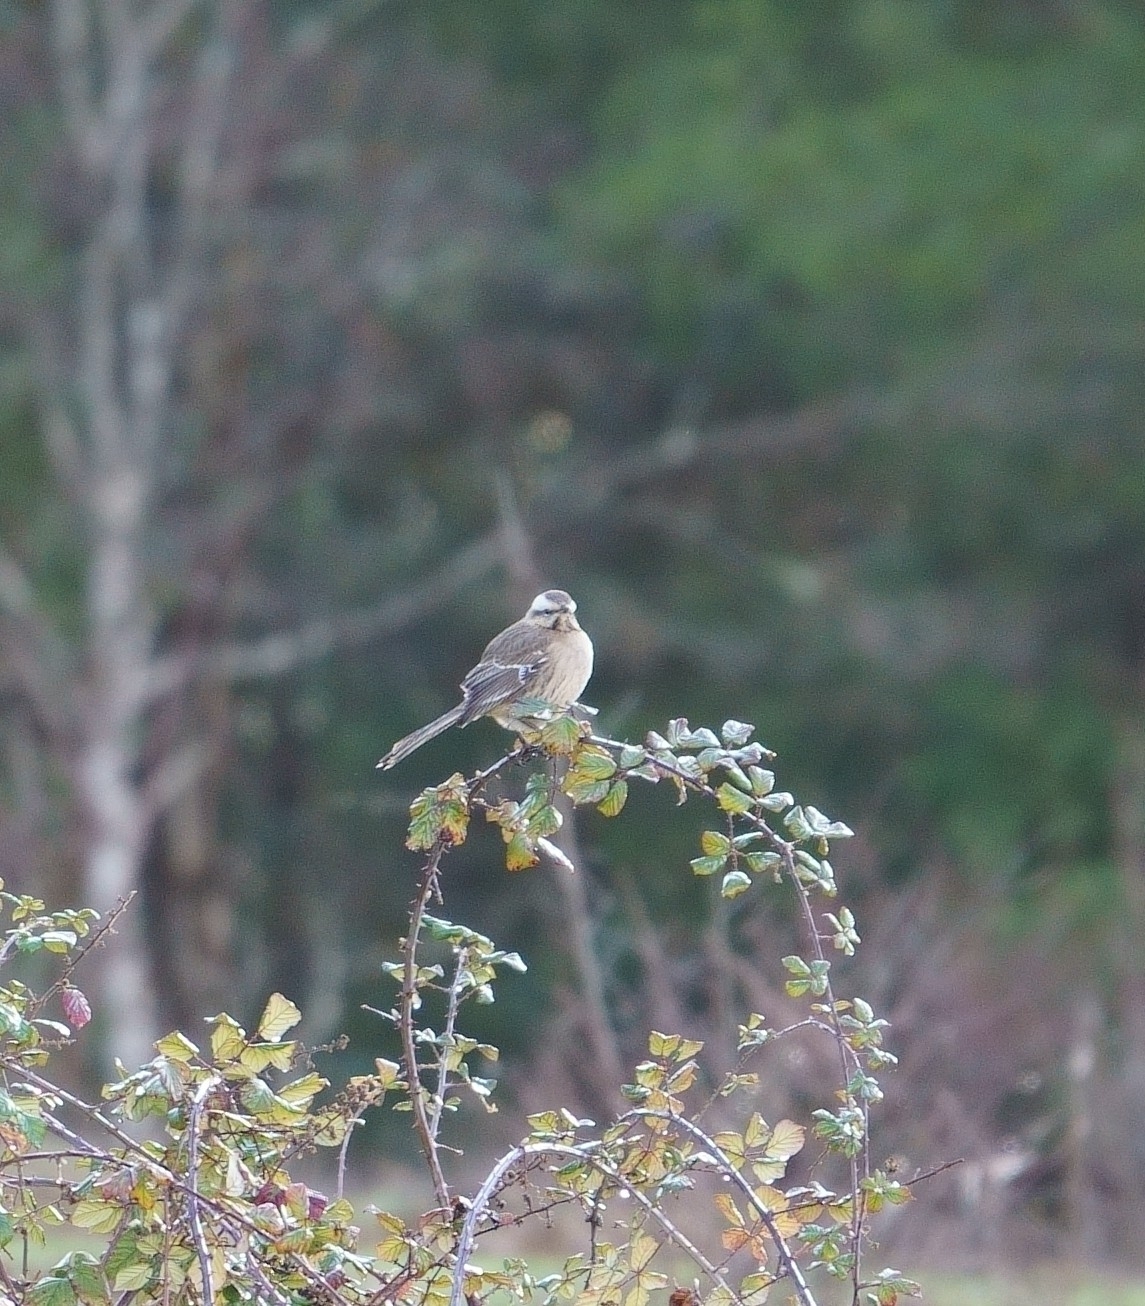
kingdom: Animalia
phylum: Chordata
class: Aves
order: Passeriformes
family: Mimidae
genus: Mimus
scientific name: Mimus thenca
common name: Chilean mockingbird
